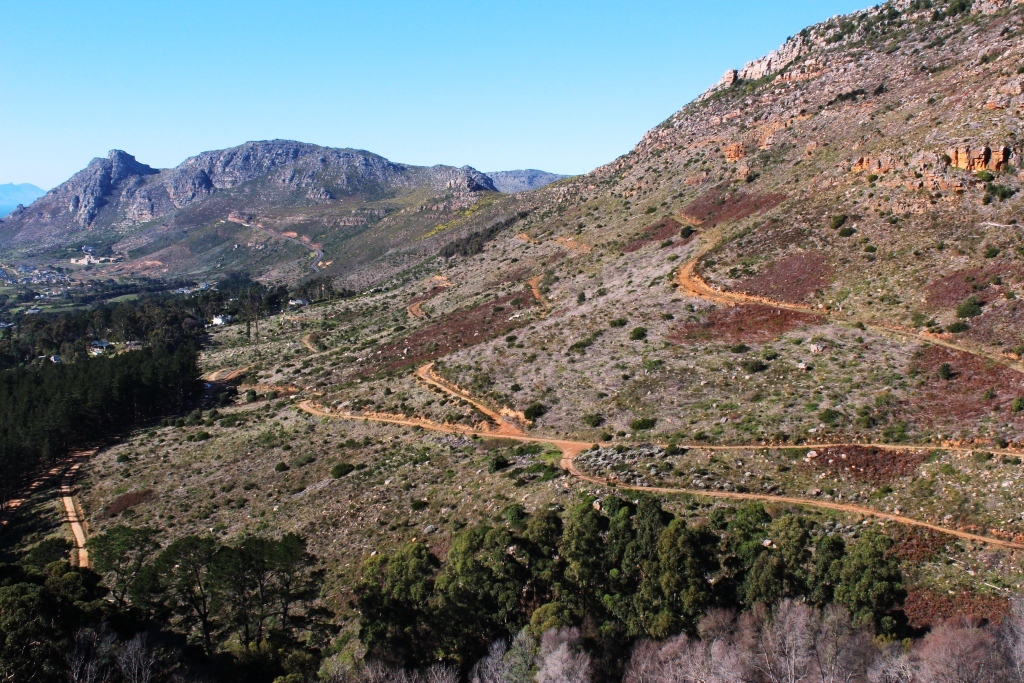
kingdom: Fungi
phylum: Ascomycota
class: Sordariomycetes
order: Hypocreales
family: Nectriaceae
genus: Fusarium
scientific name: Fusarium circinatum
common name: Pitch canker
